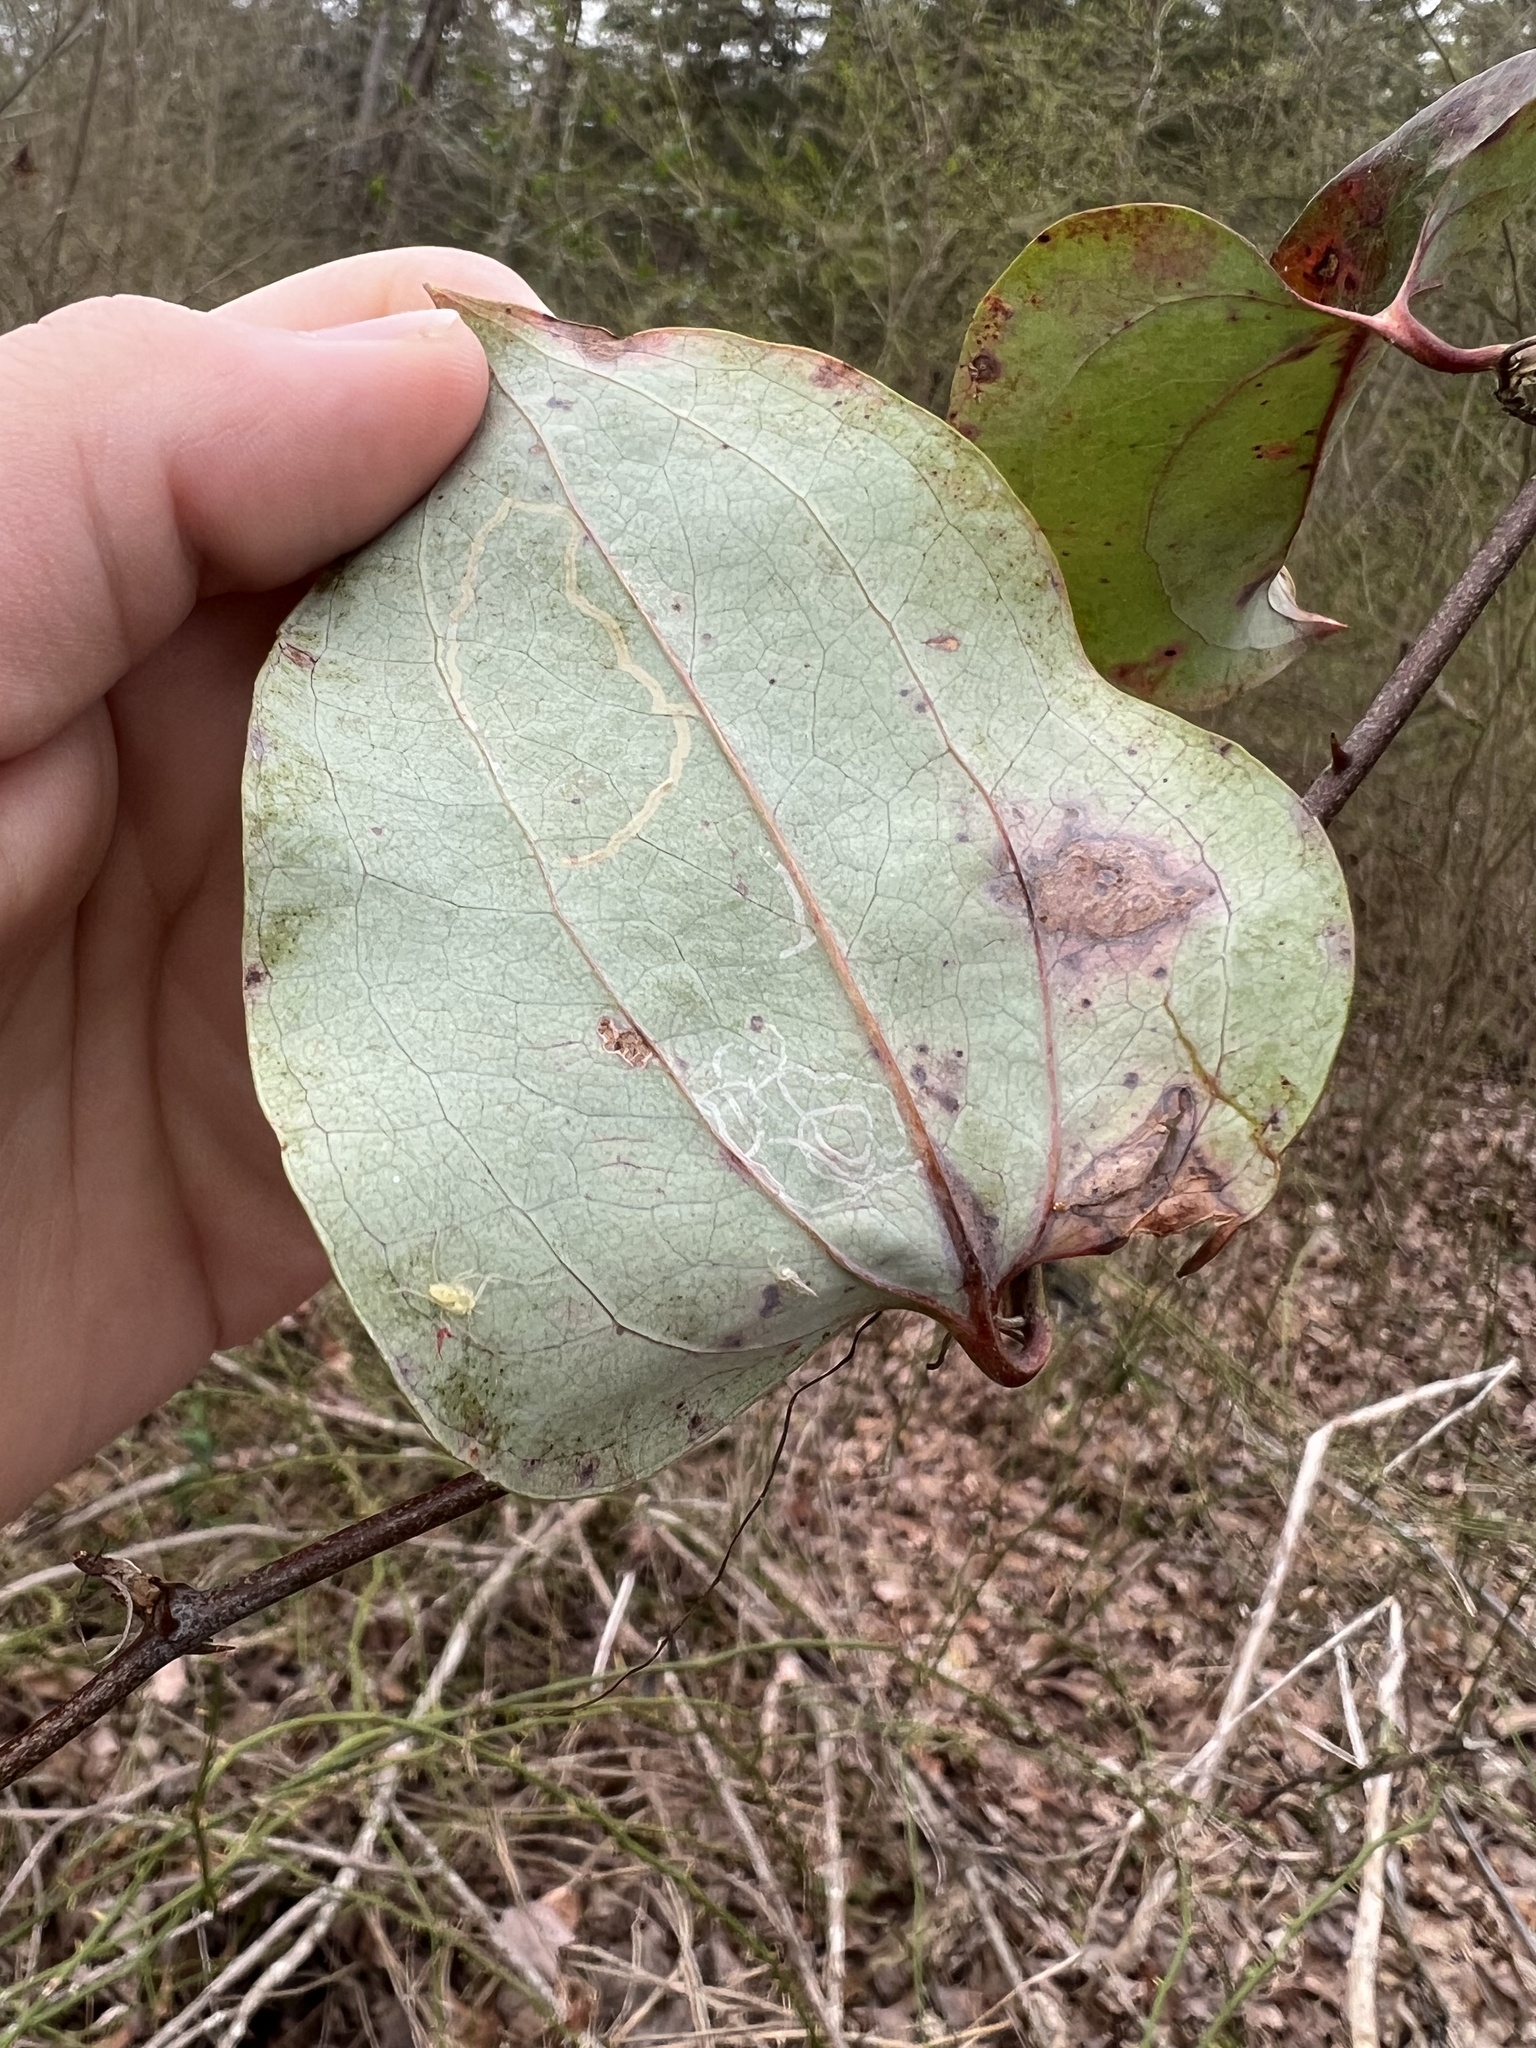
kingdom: Animalia
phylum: Arthropoda
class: Insecta
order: Lepidoptera
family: Gracillariidae
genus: Marmara
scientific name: Marmara smilacisella
